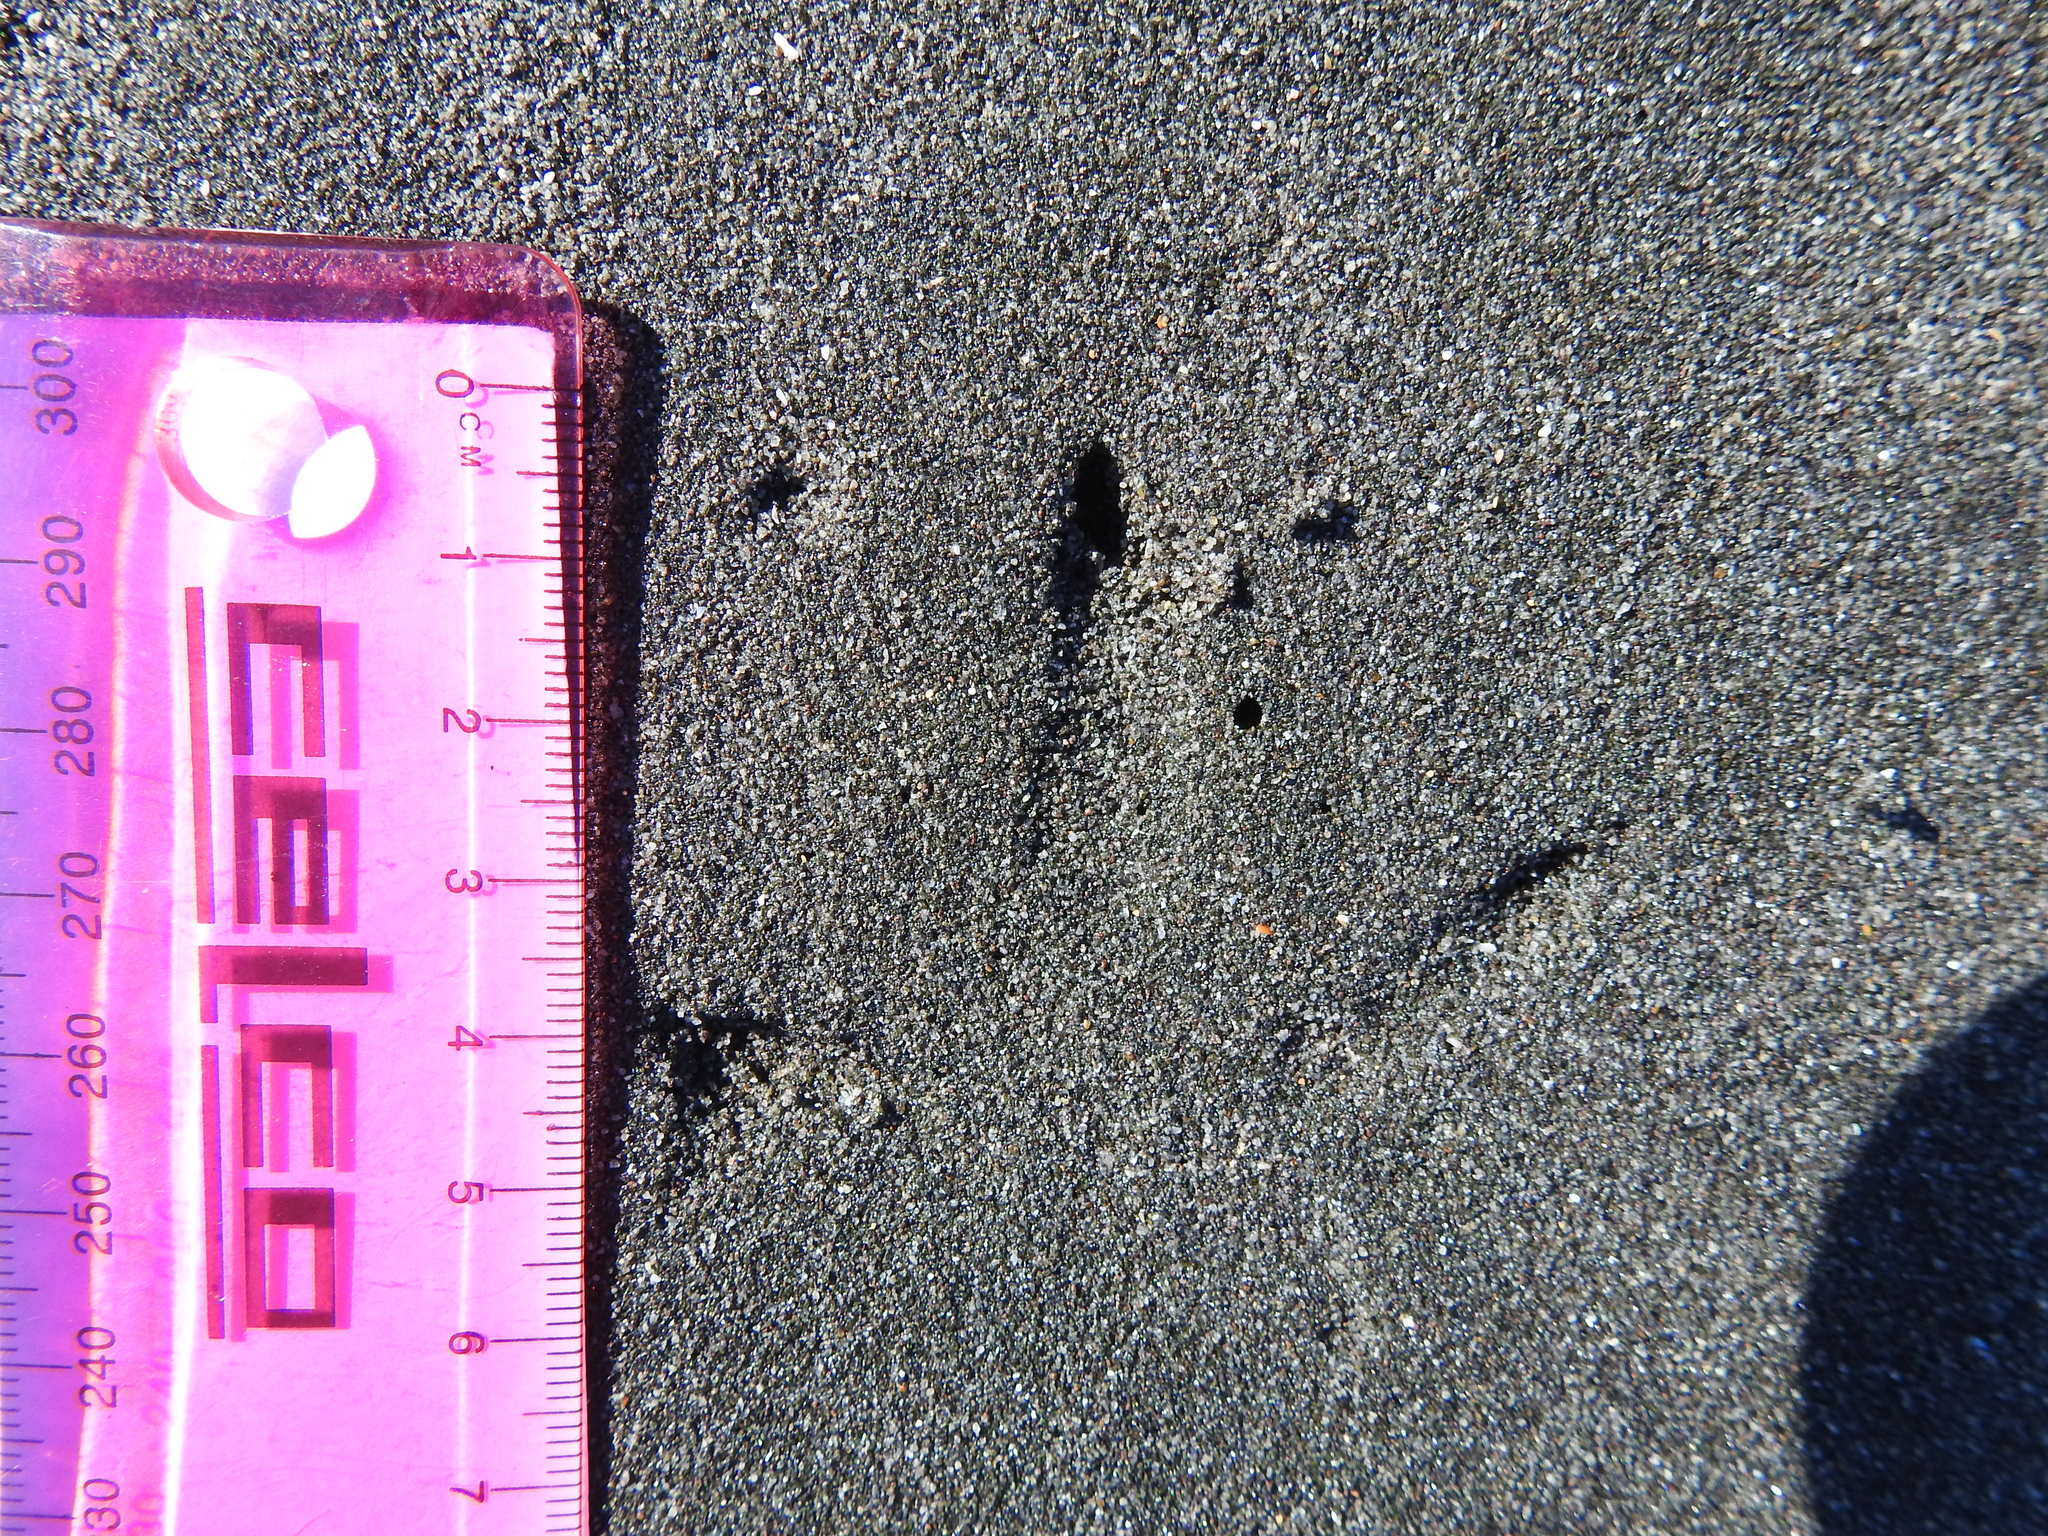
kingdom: Animalia
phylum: Chordata
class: Aves
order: Charadriiformes
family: Haematopodidae
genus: Haematopus
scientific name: Haematopus unicolor
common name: Variable oystercatcher
